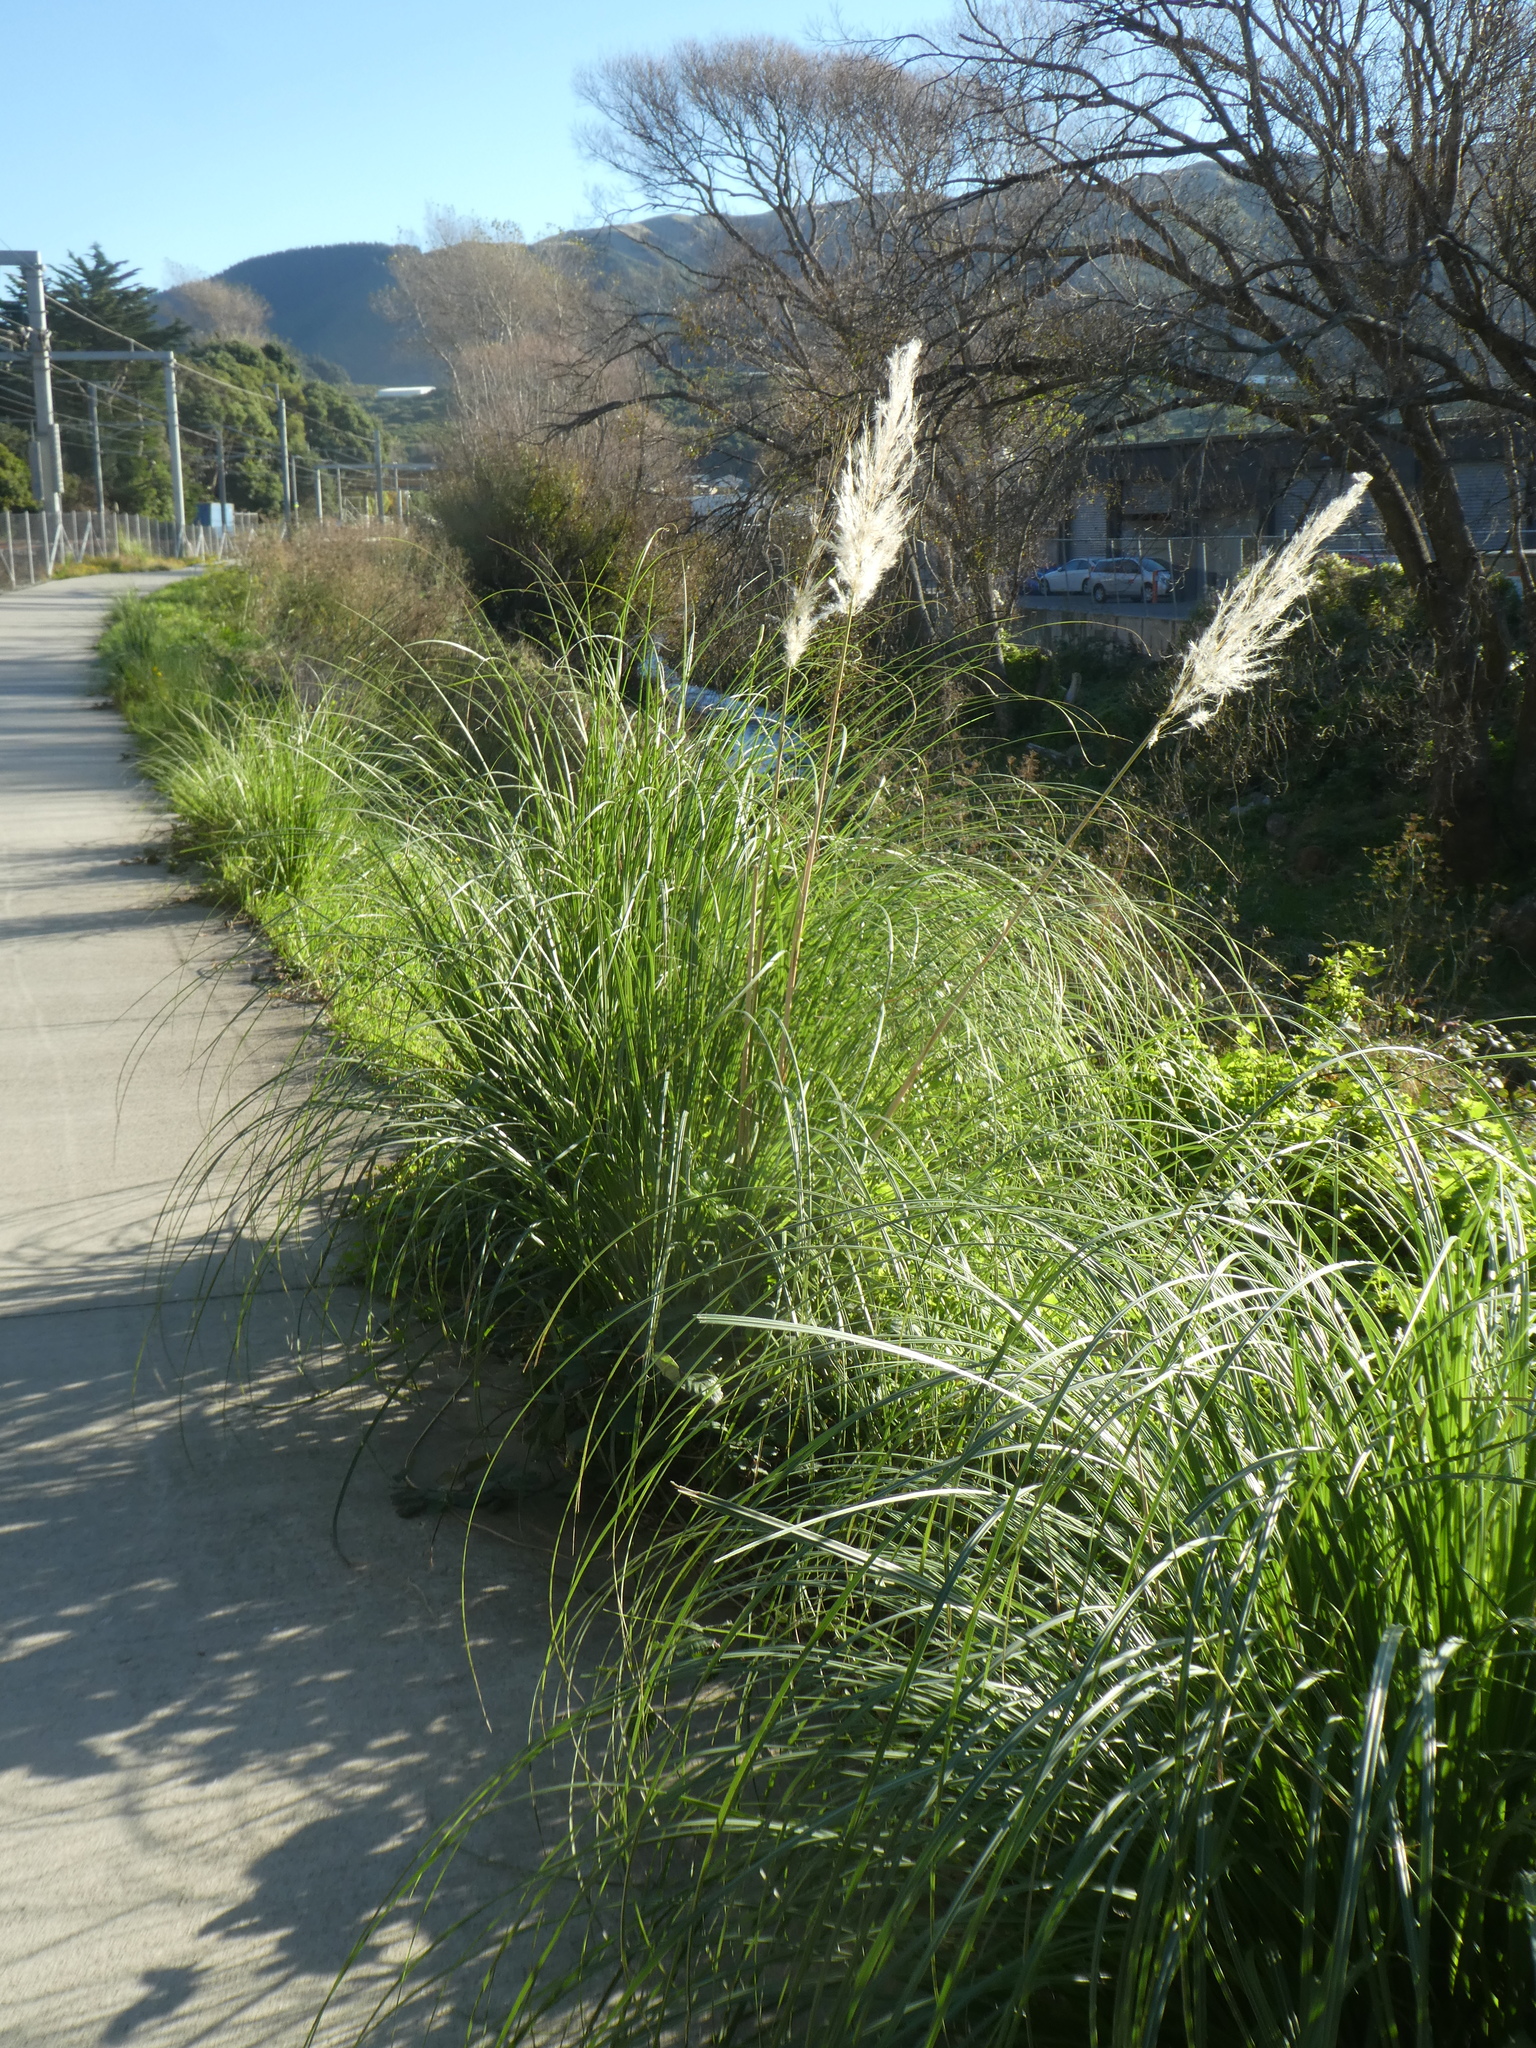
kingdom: Plantae
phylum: Tracheophyta
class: Liliopsida
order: Poales
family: Poaceae
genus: Cortaderia
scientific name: Cortaderia selloana
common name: Uruguayan pampas grass
